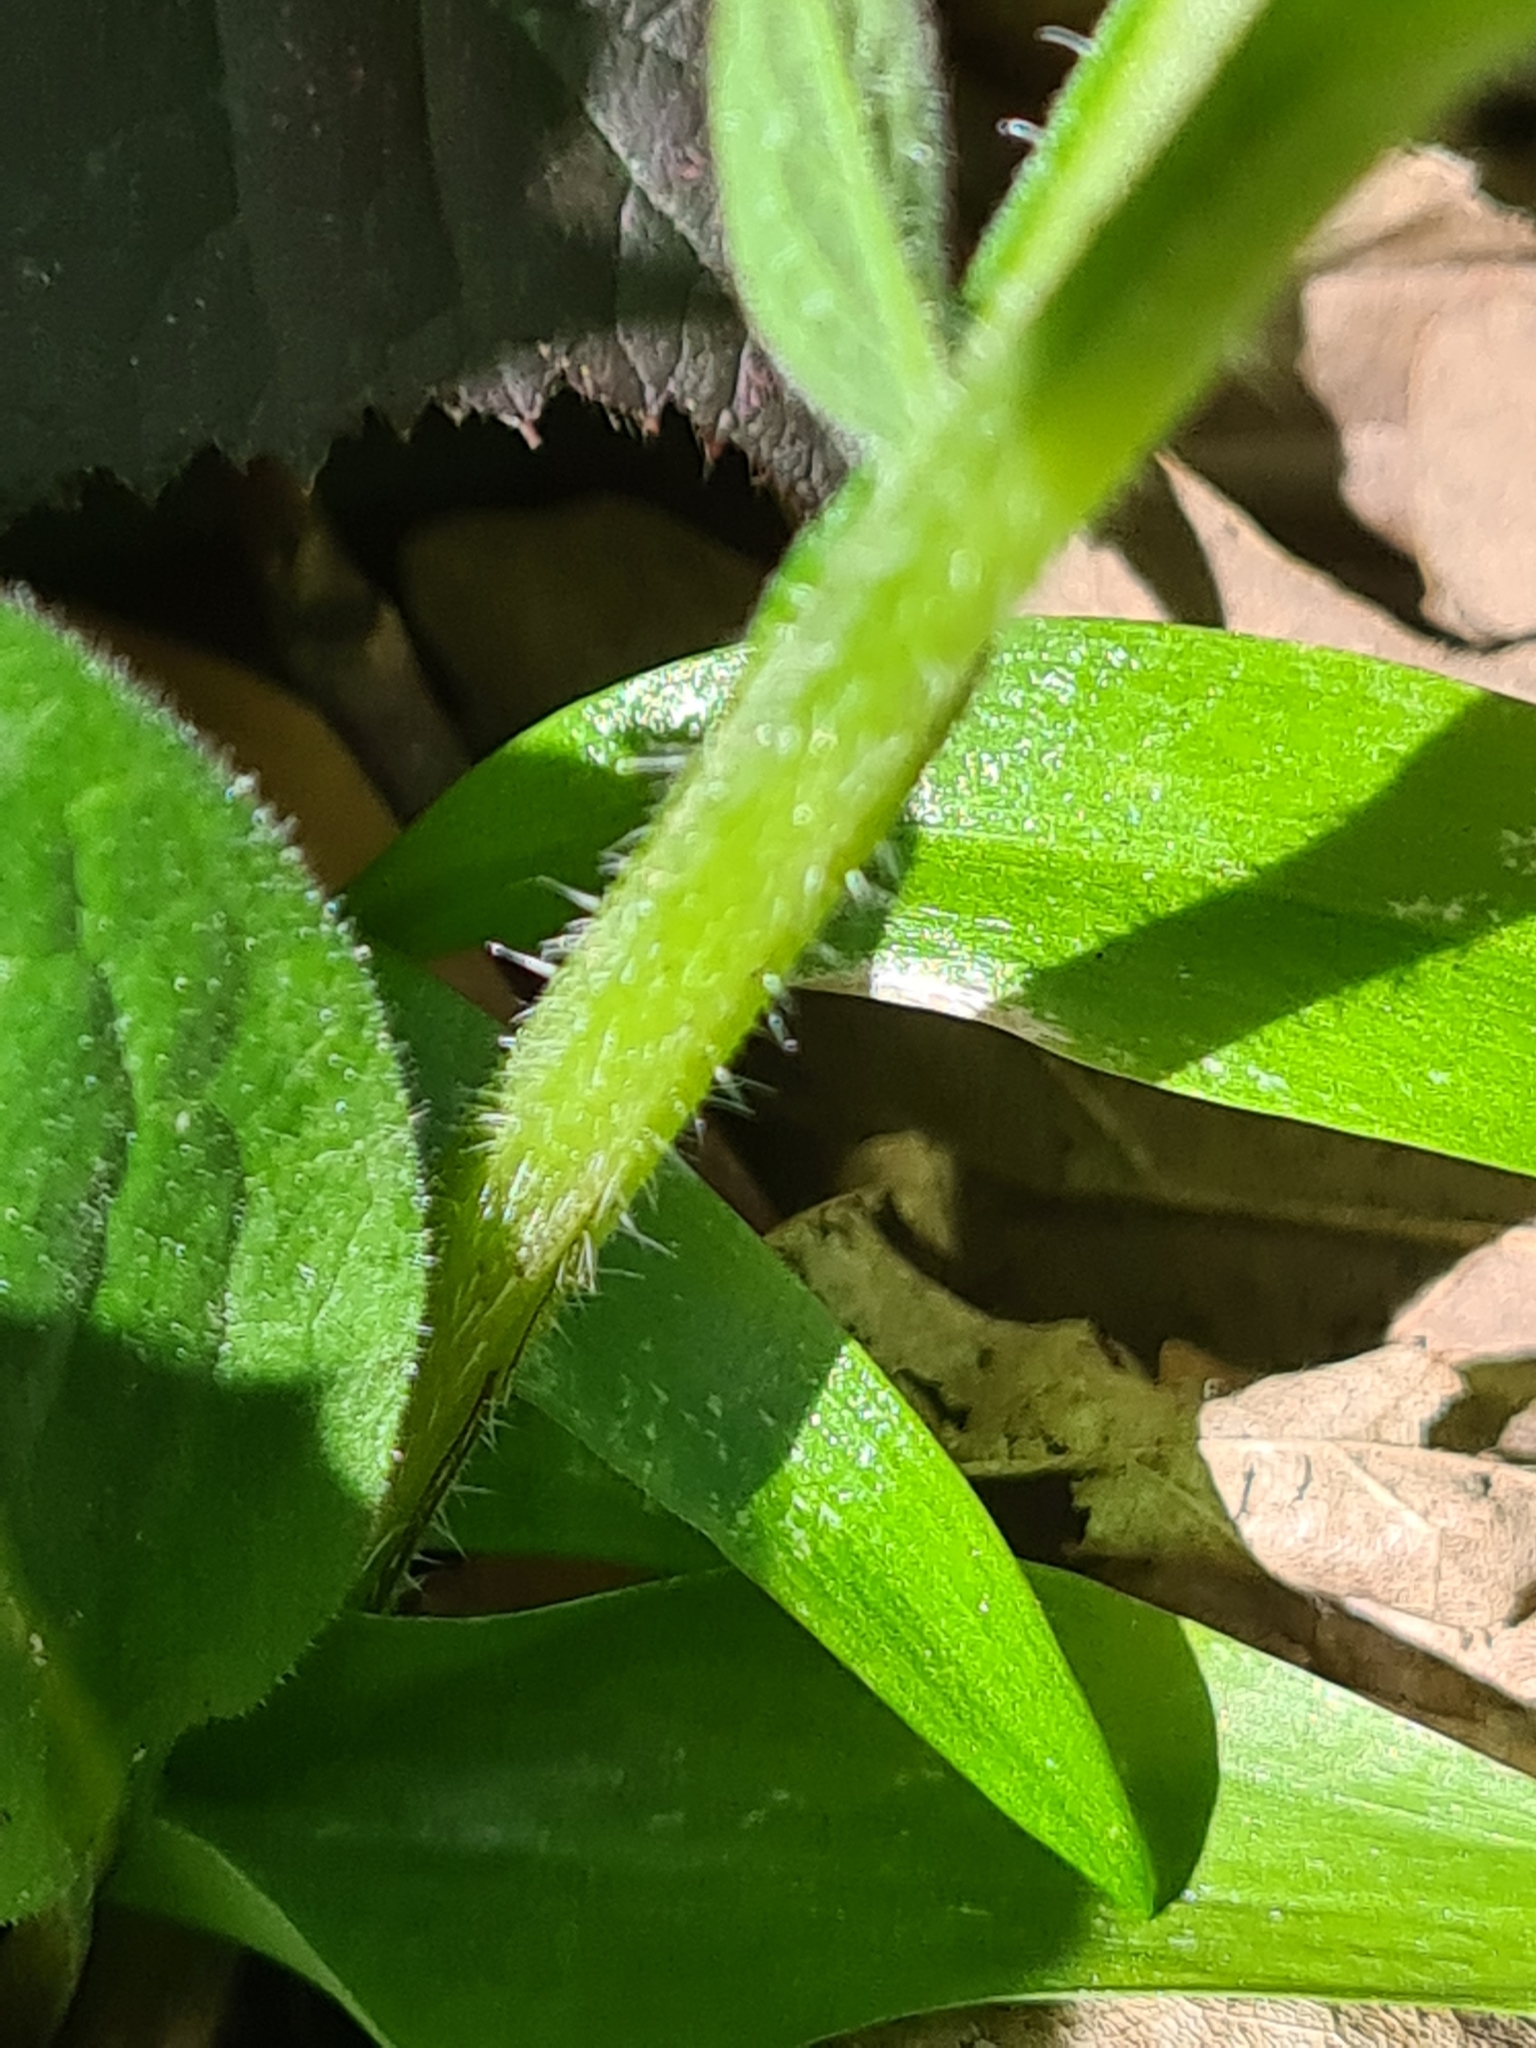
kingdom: Plantae
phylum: Tracheophyta
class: Magnoliopsida
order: Boraginales
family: Boraginaceae
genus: Symphytum
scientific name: Symphytum tuberosum
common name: Tuberous comfrey
